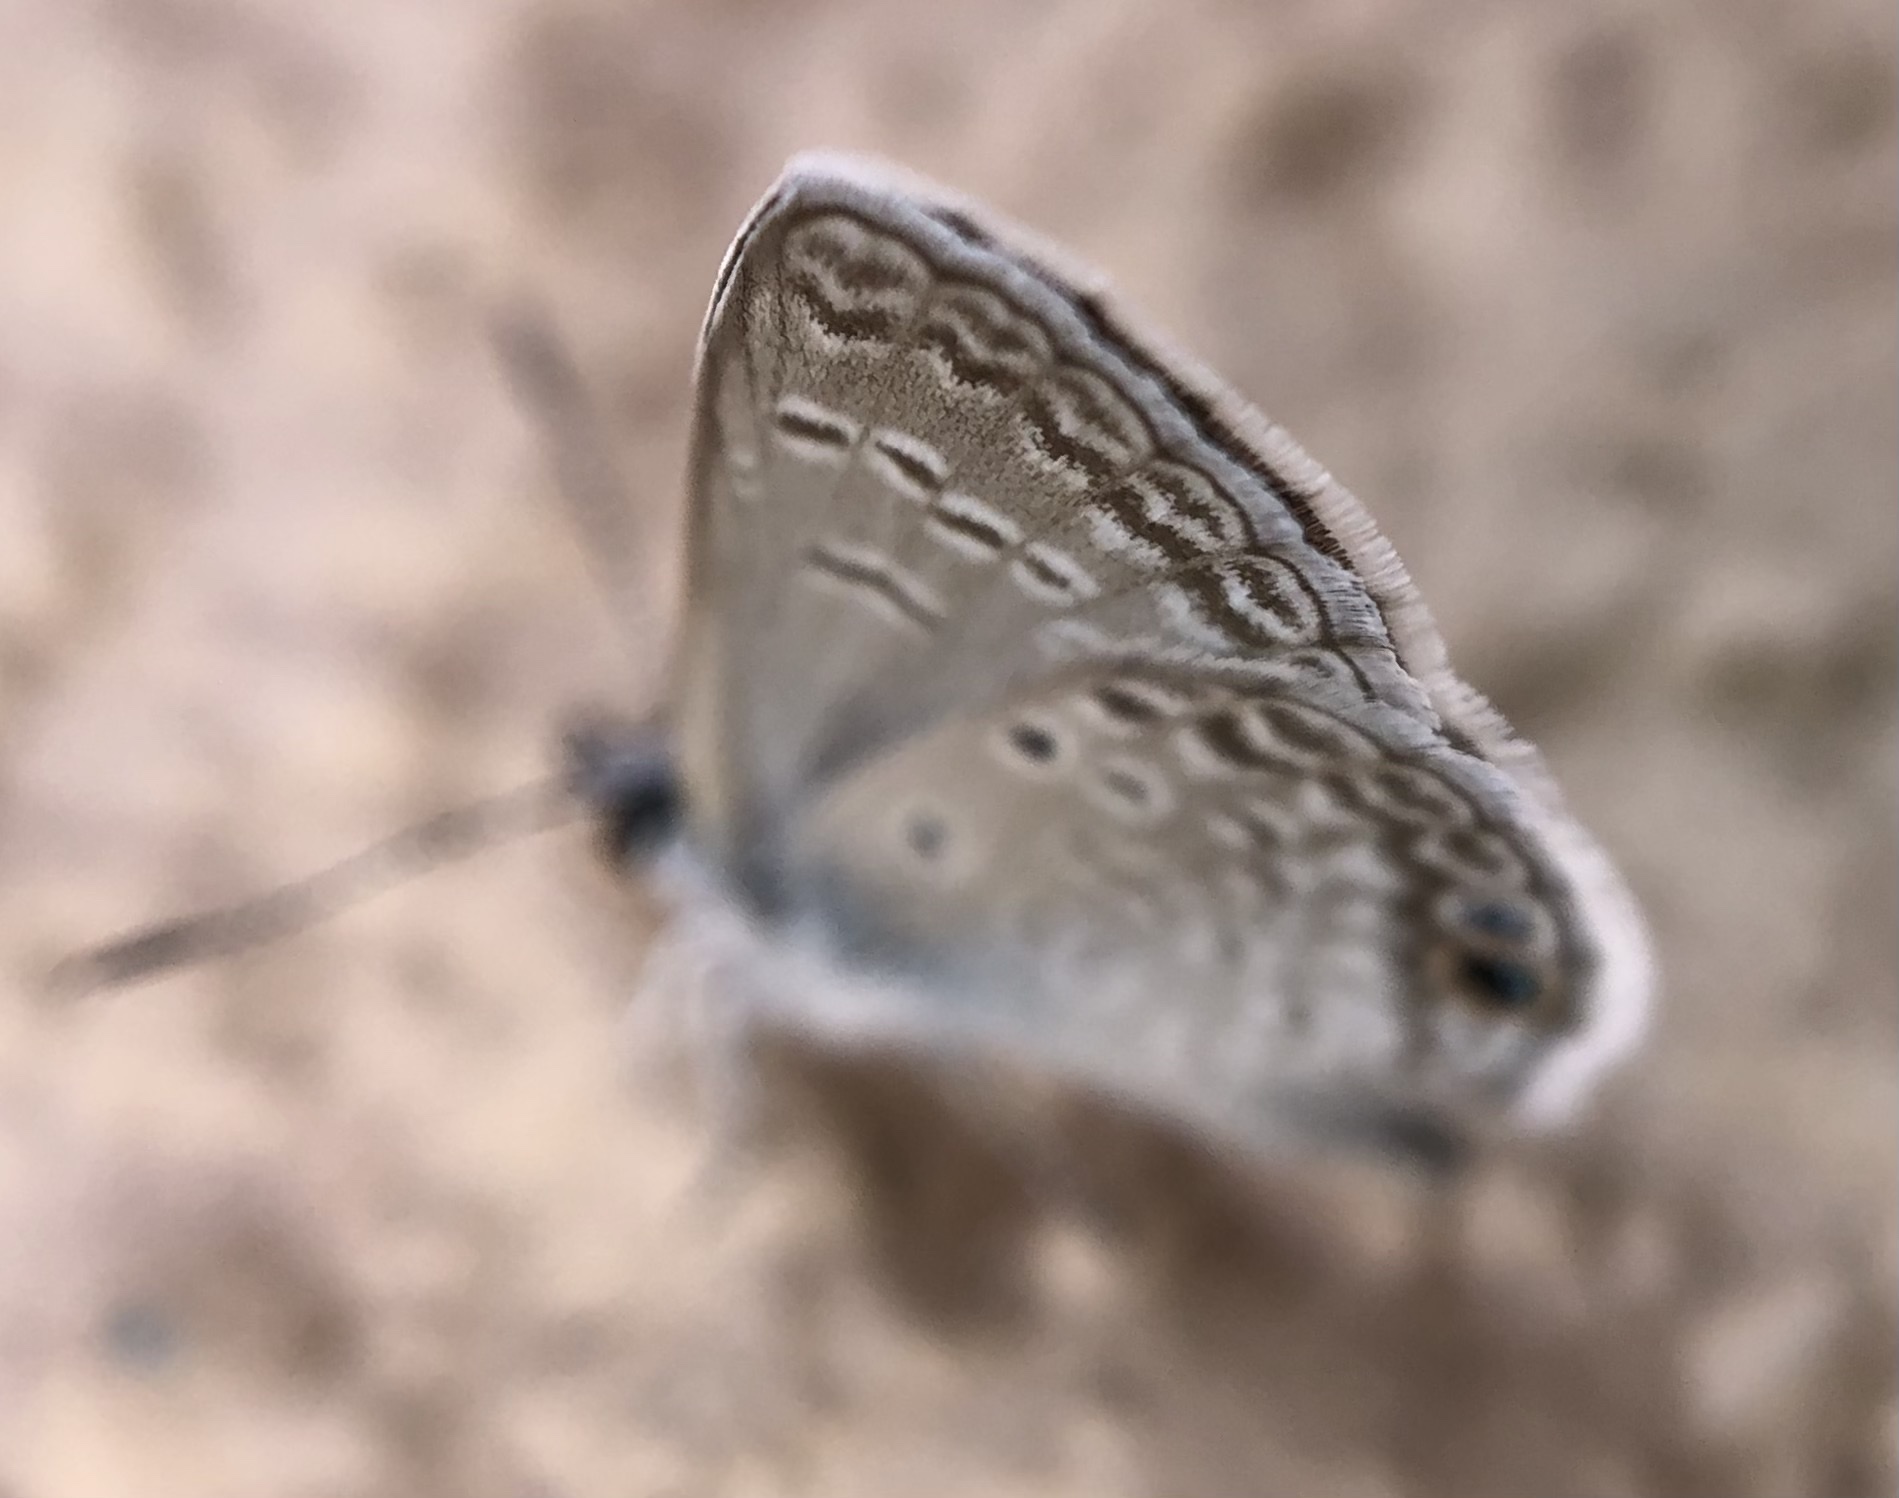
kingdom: Animalia
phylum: Arthropoda
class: Insecta
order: Lepidoptera
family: Lycaenidae
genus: Hemiargus
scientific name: Hemiargus ceraunus
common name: Ceraunus blue
